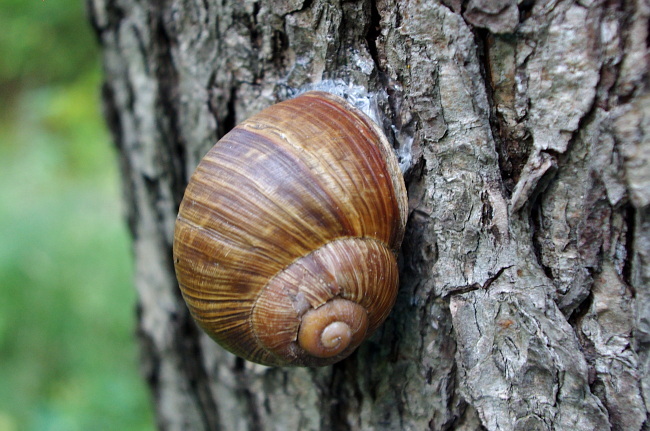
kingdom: Animalia
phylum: Mollusca
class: Gastropoda
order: Stylommatophora
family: Helicidae
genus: Helix
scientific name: Helix pomatia
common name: Roman snail
